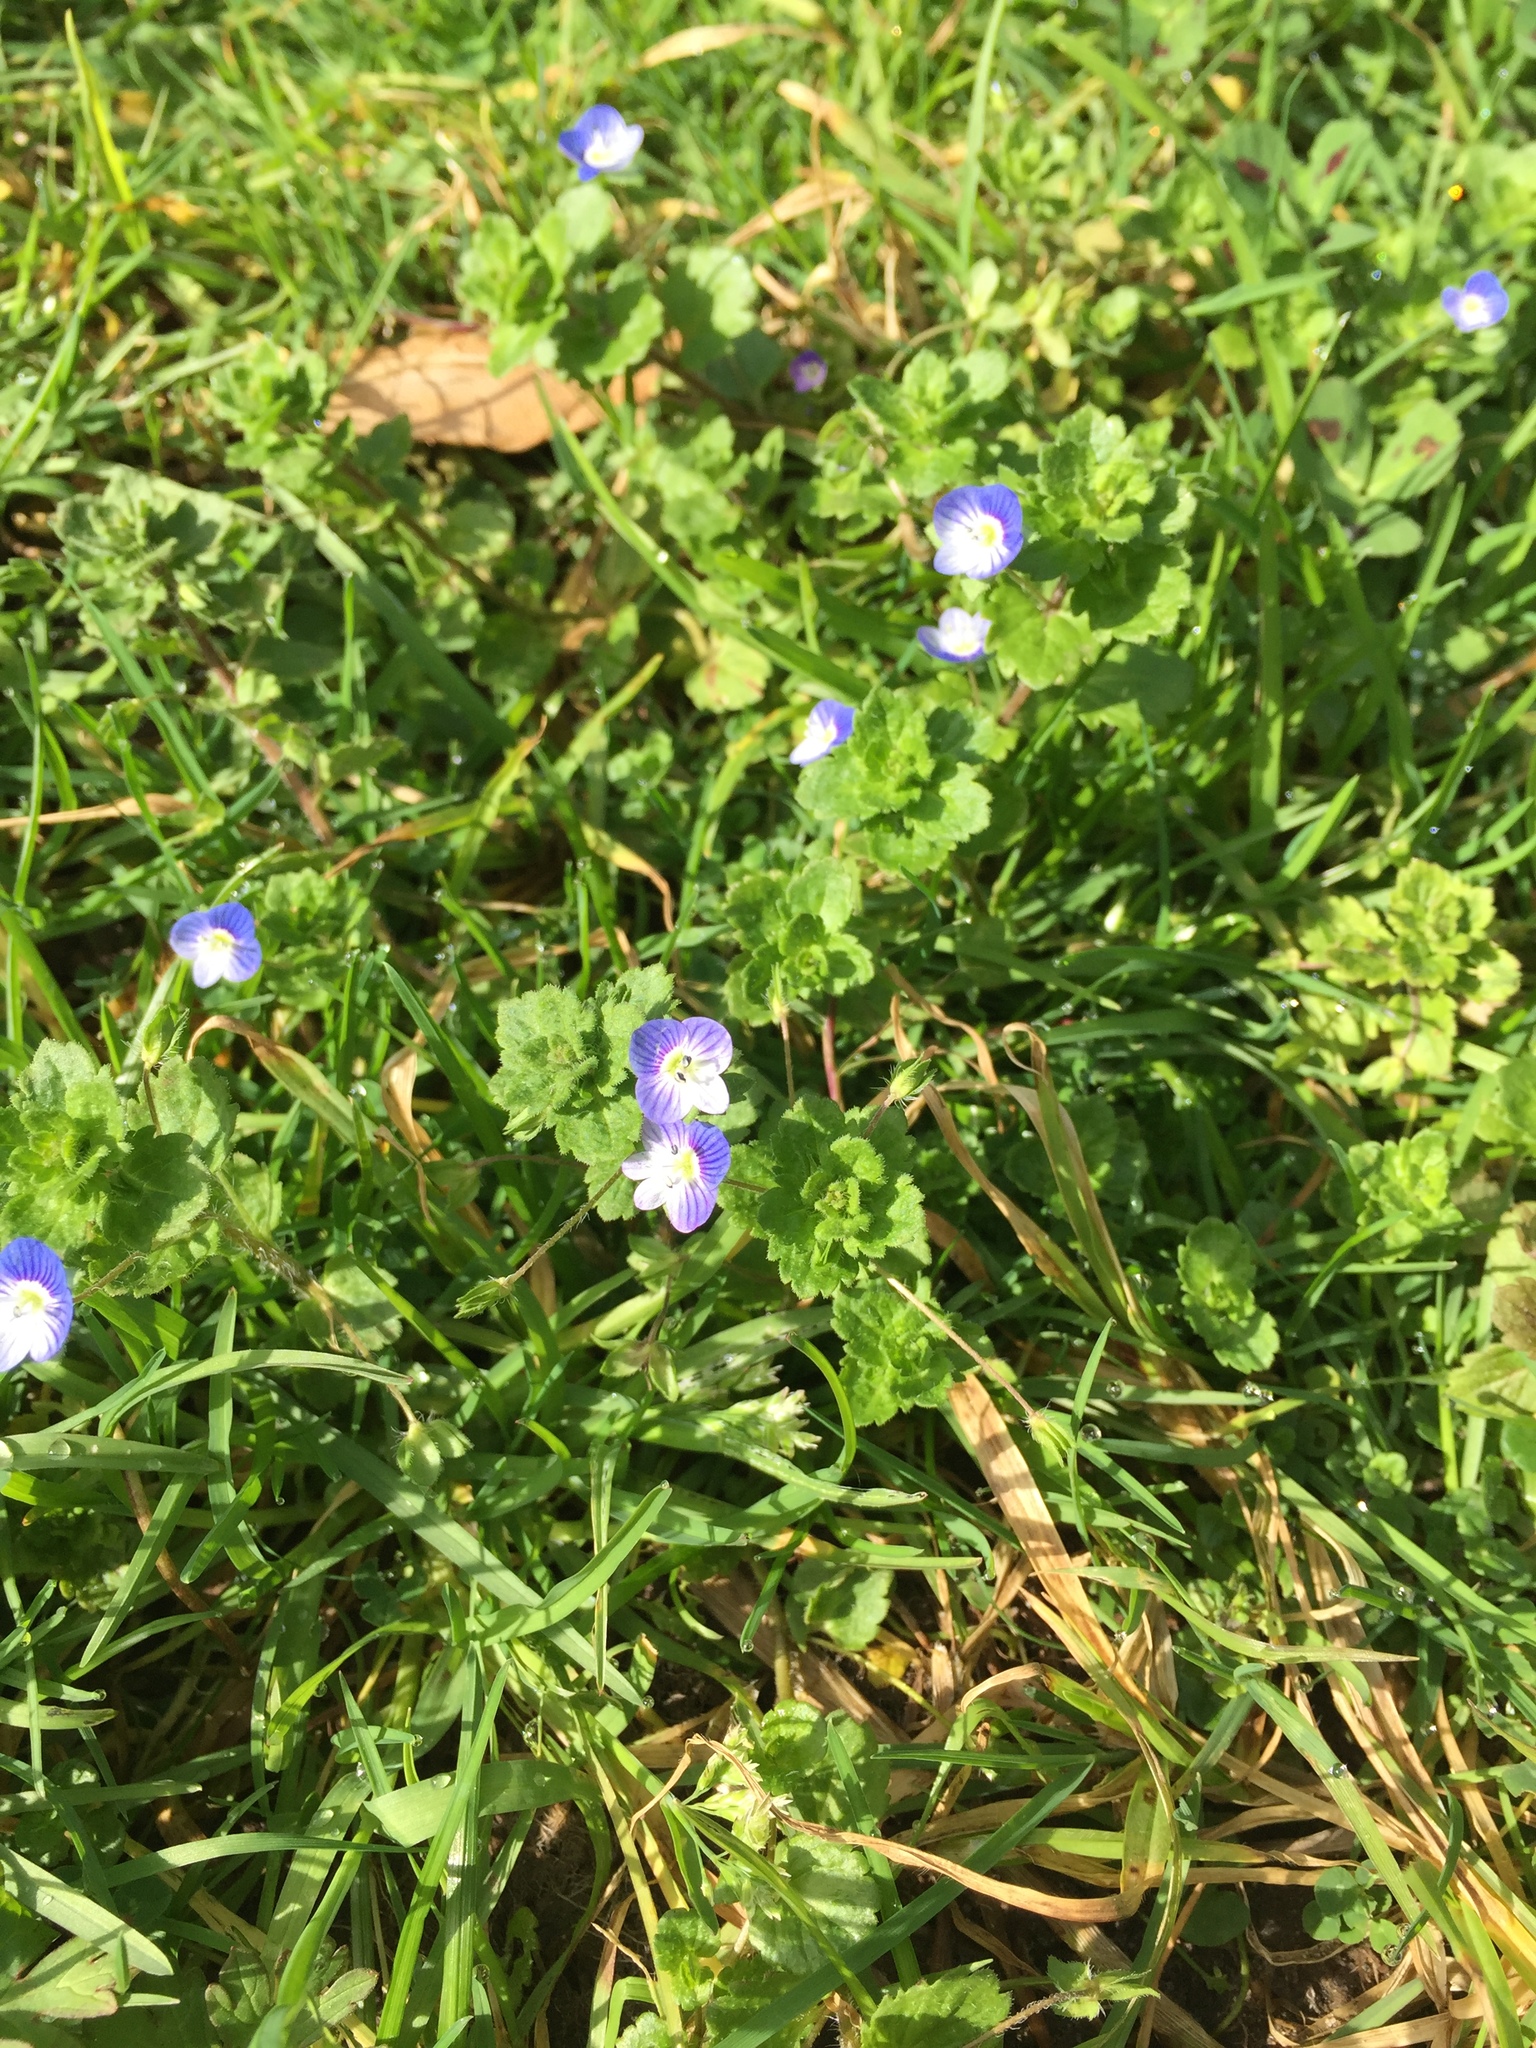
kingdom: Plantae
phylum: Tracheophyta
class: Magnoliopsida
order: Lamiales
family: Plantaginaceae
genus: Veronica
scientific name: Veronica persica
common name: Common field-speedwell
